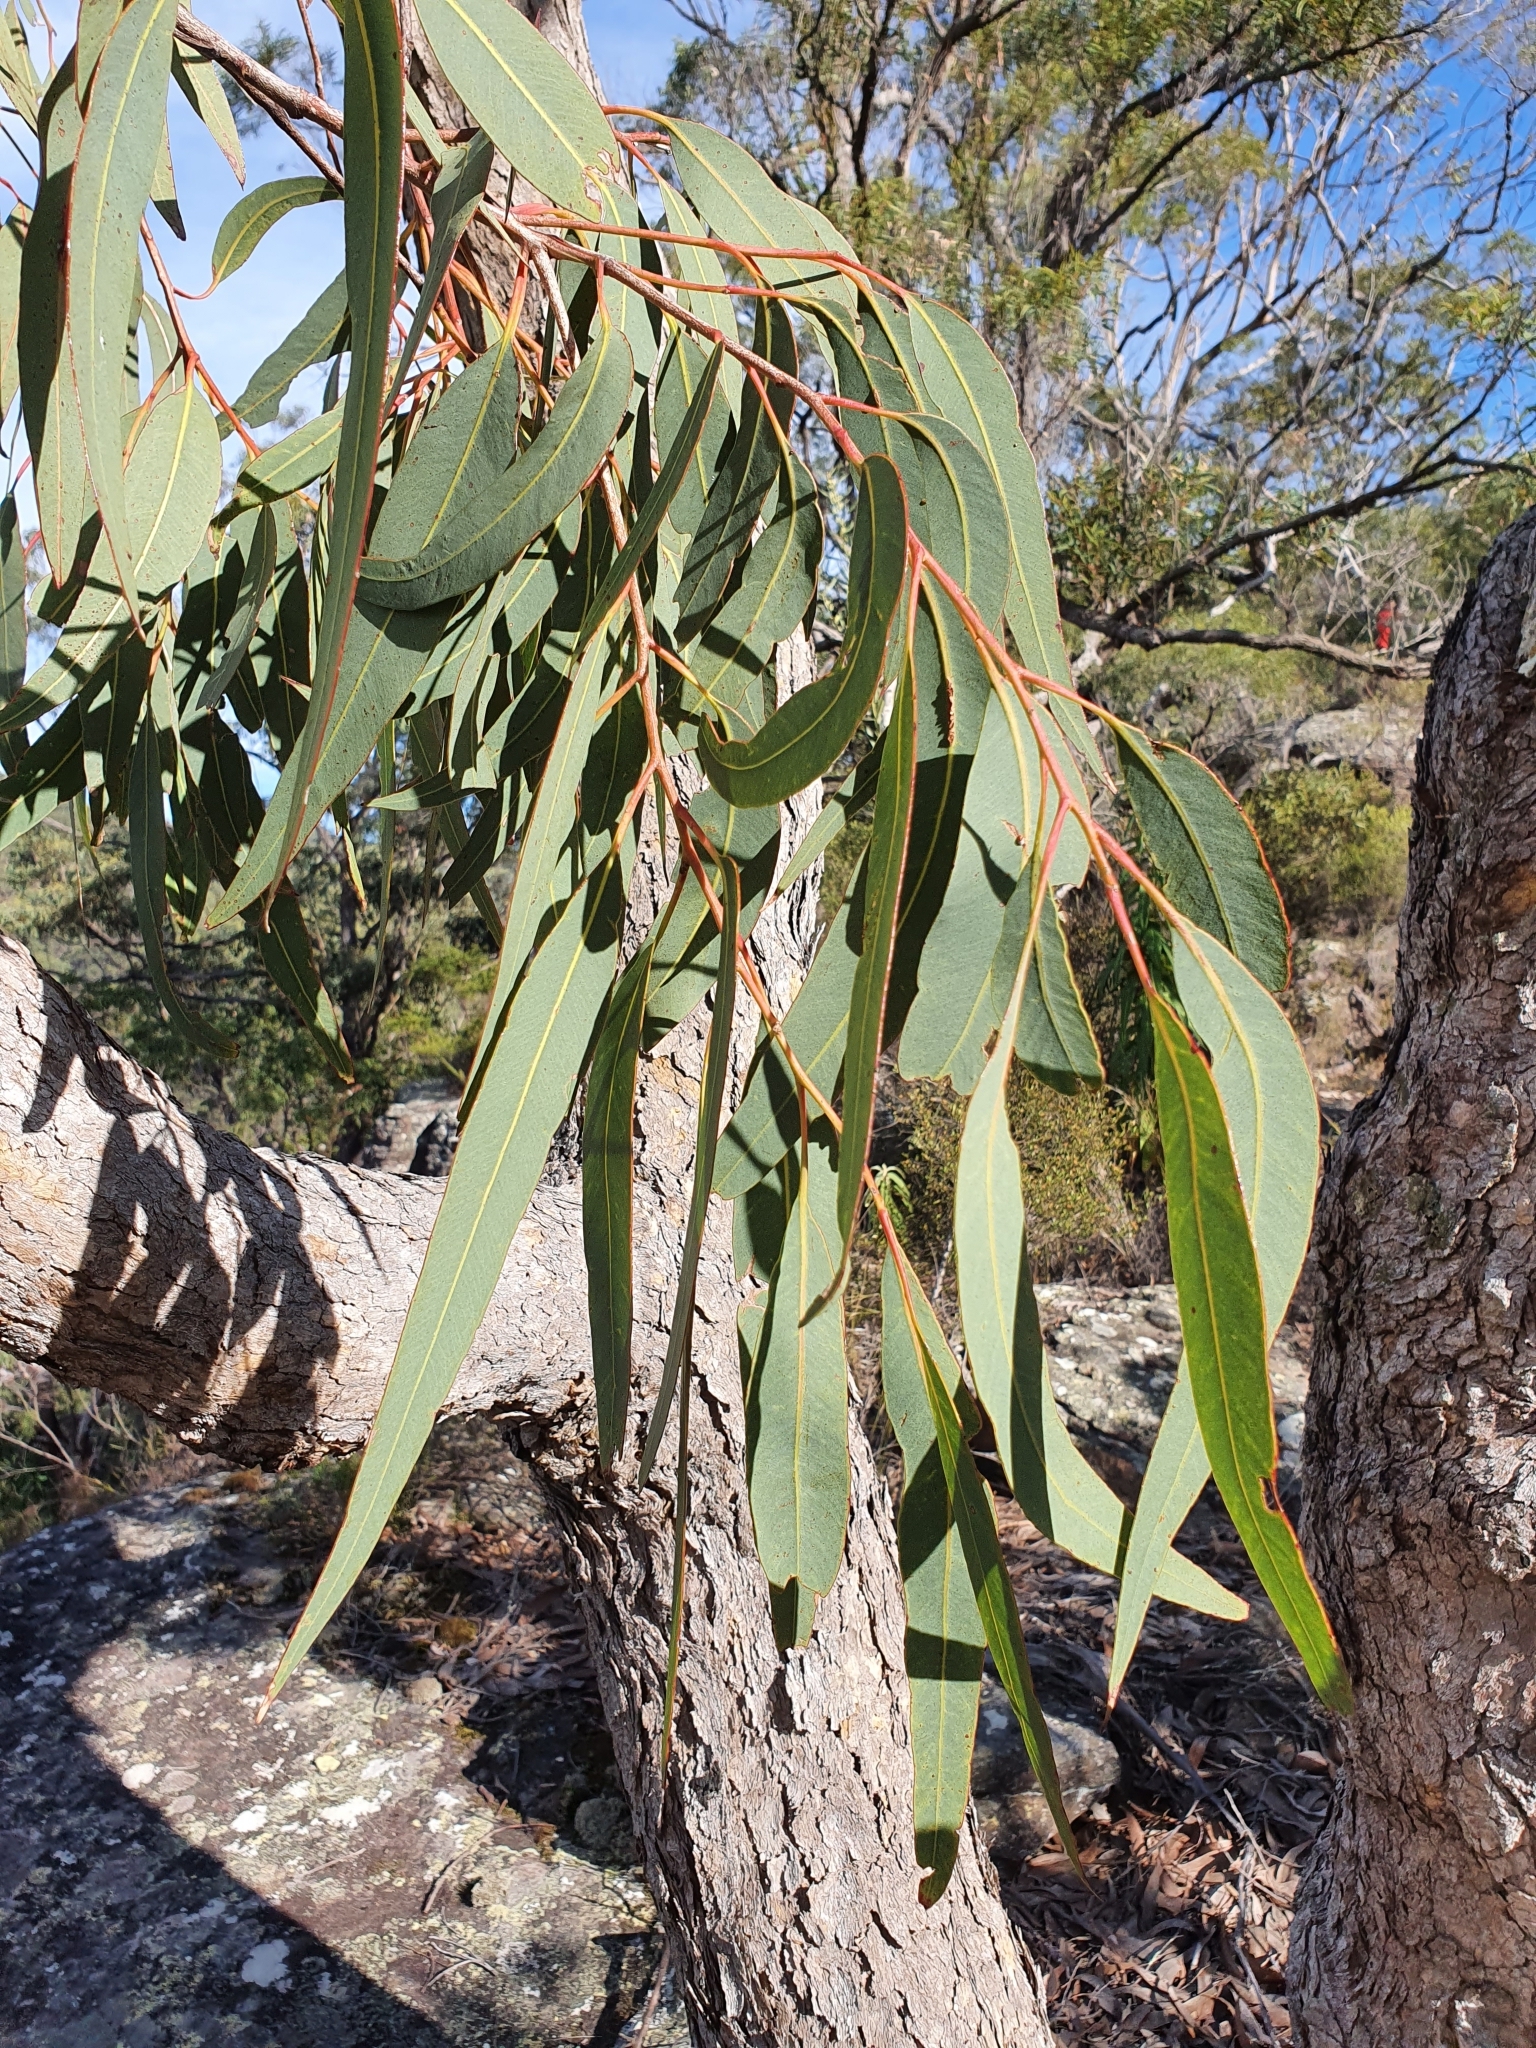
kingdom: Plantae
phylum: Tracheophyta
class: Magnoliopsida
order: Myrtales
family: Myrtaceae
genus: Corymbia
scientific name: Corymbia eximia
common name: Yellow bloodwood
